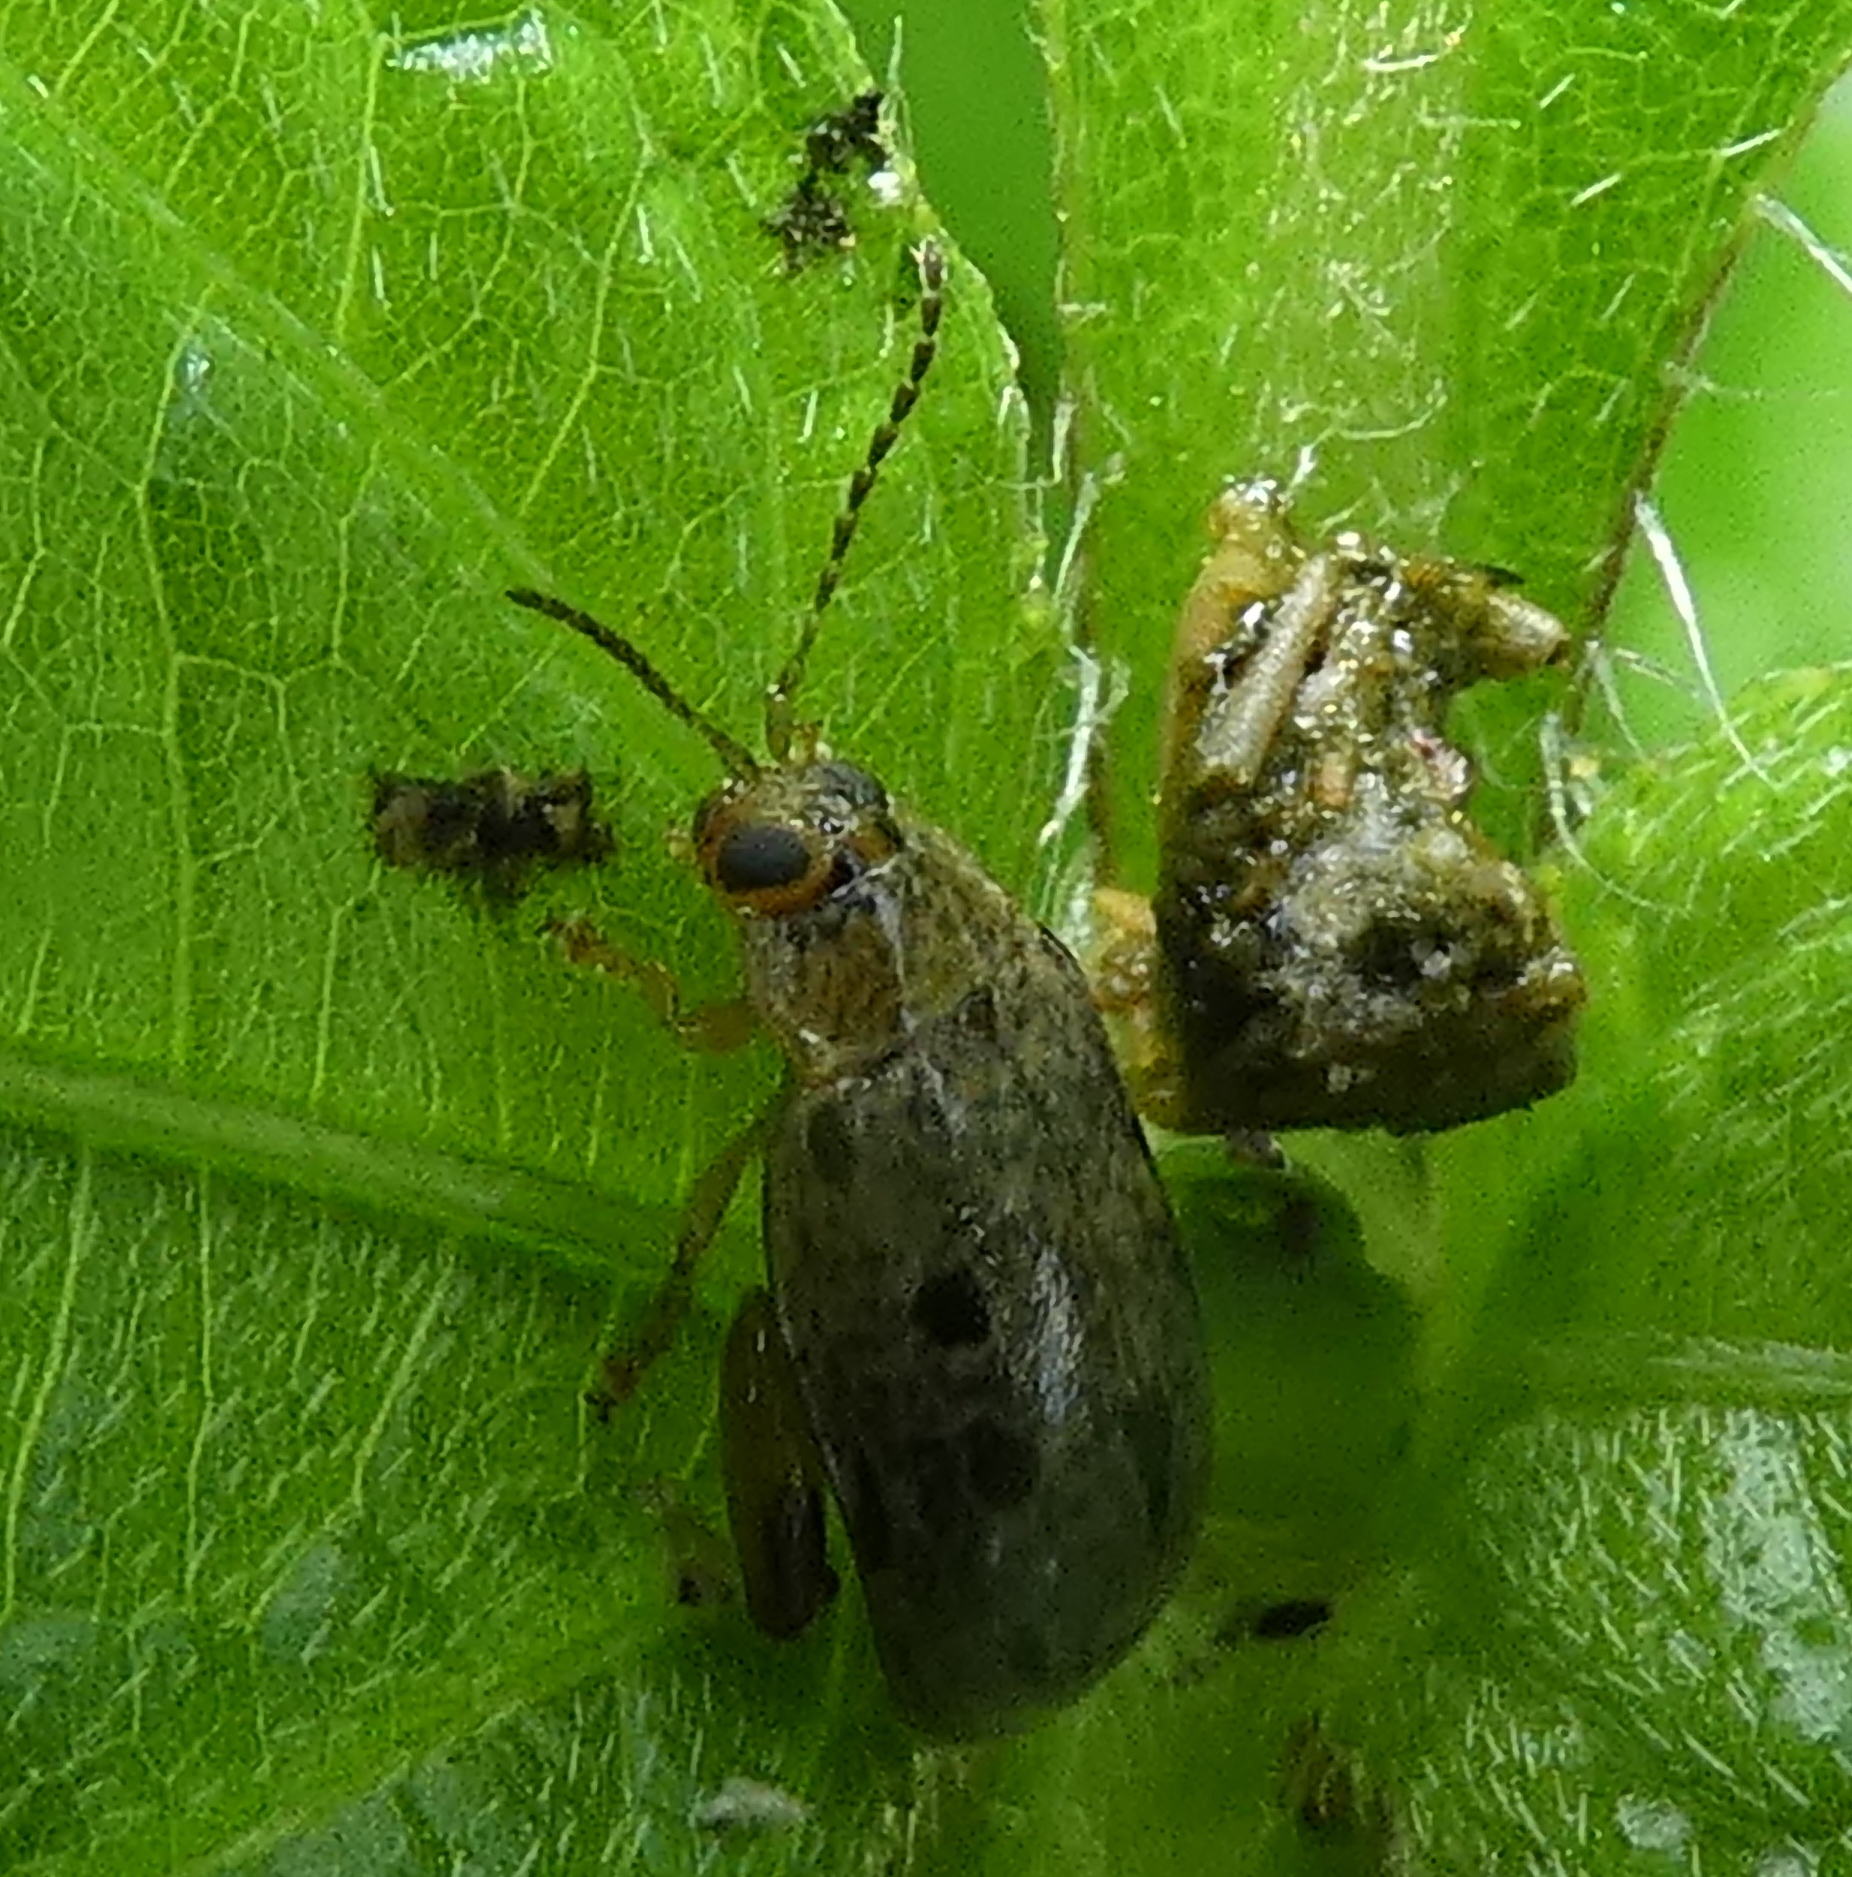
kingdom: Animalia
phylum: Arthropoda
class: Insecta
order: Coleoptera
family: Chrysomelidae
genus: Alagoasa
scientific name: Alagoasa
